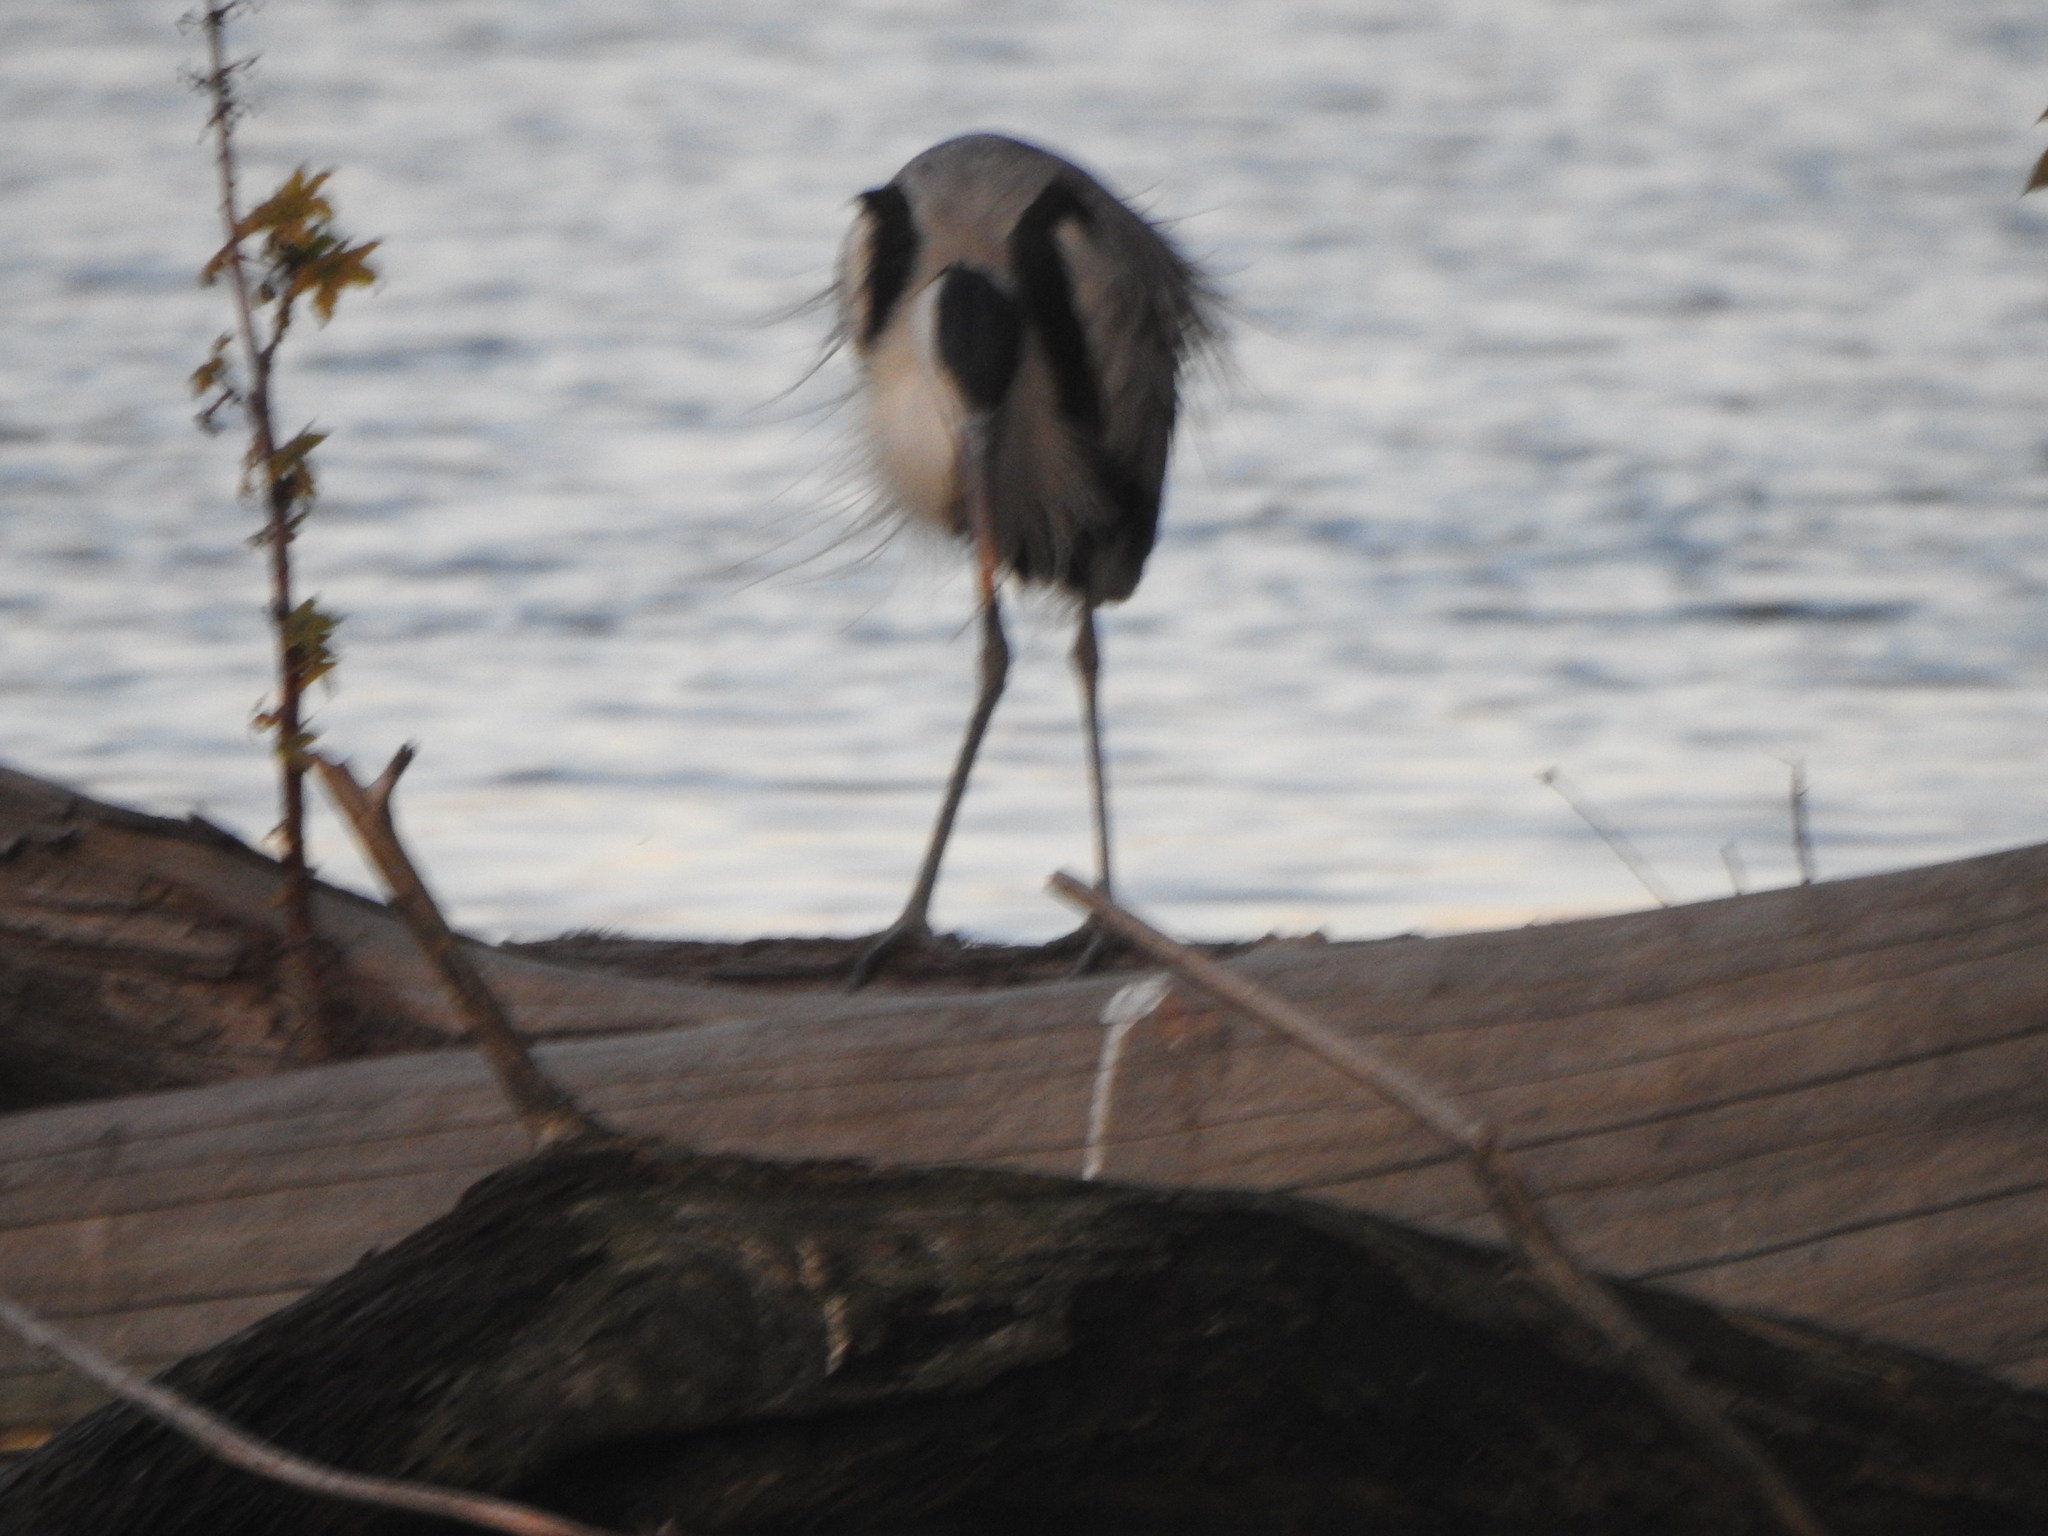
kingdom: Animalia
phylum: Chordata
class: Aves
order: Pelecaniformes
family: Ardeidae
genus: Ardea
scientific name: Ardea cocoi
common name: Cocoi heron
